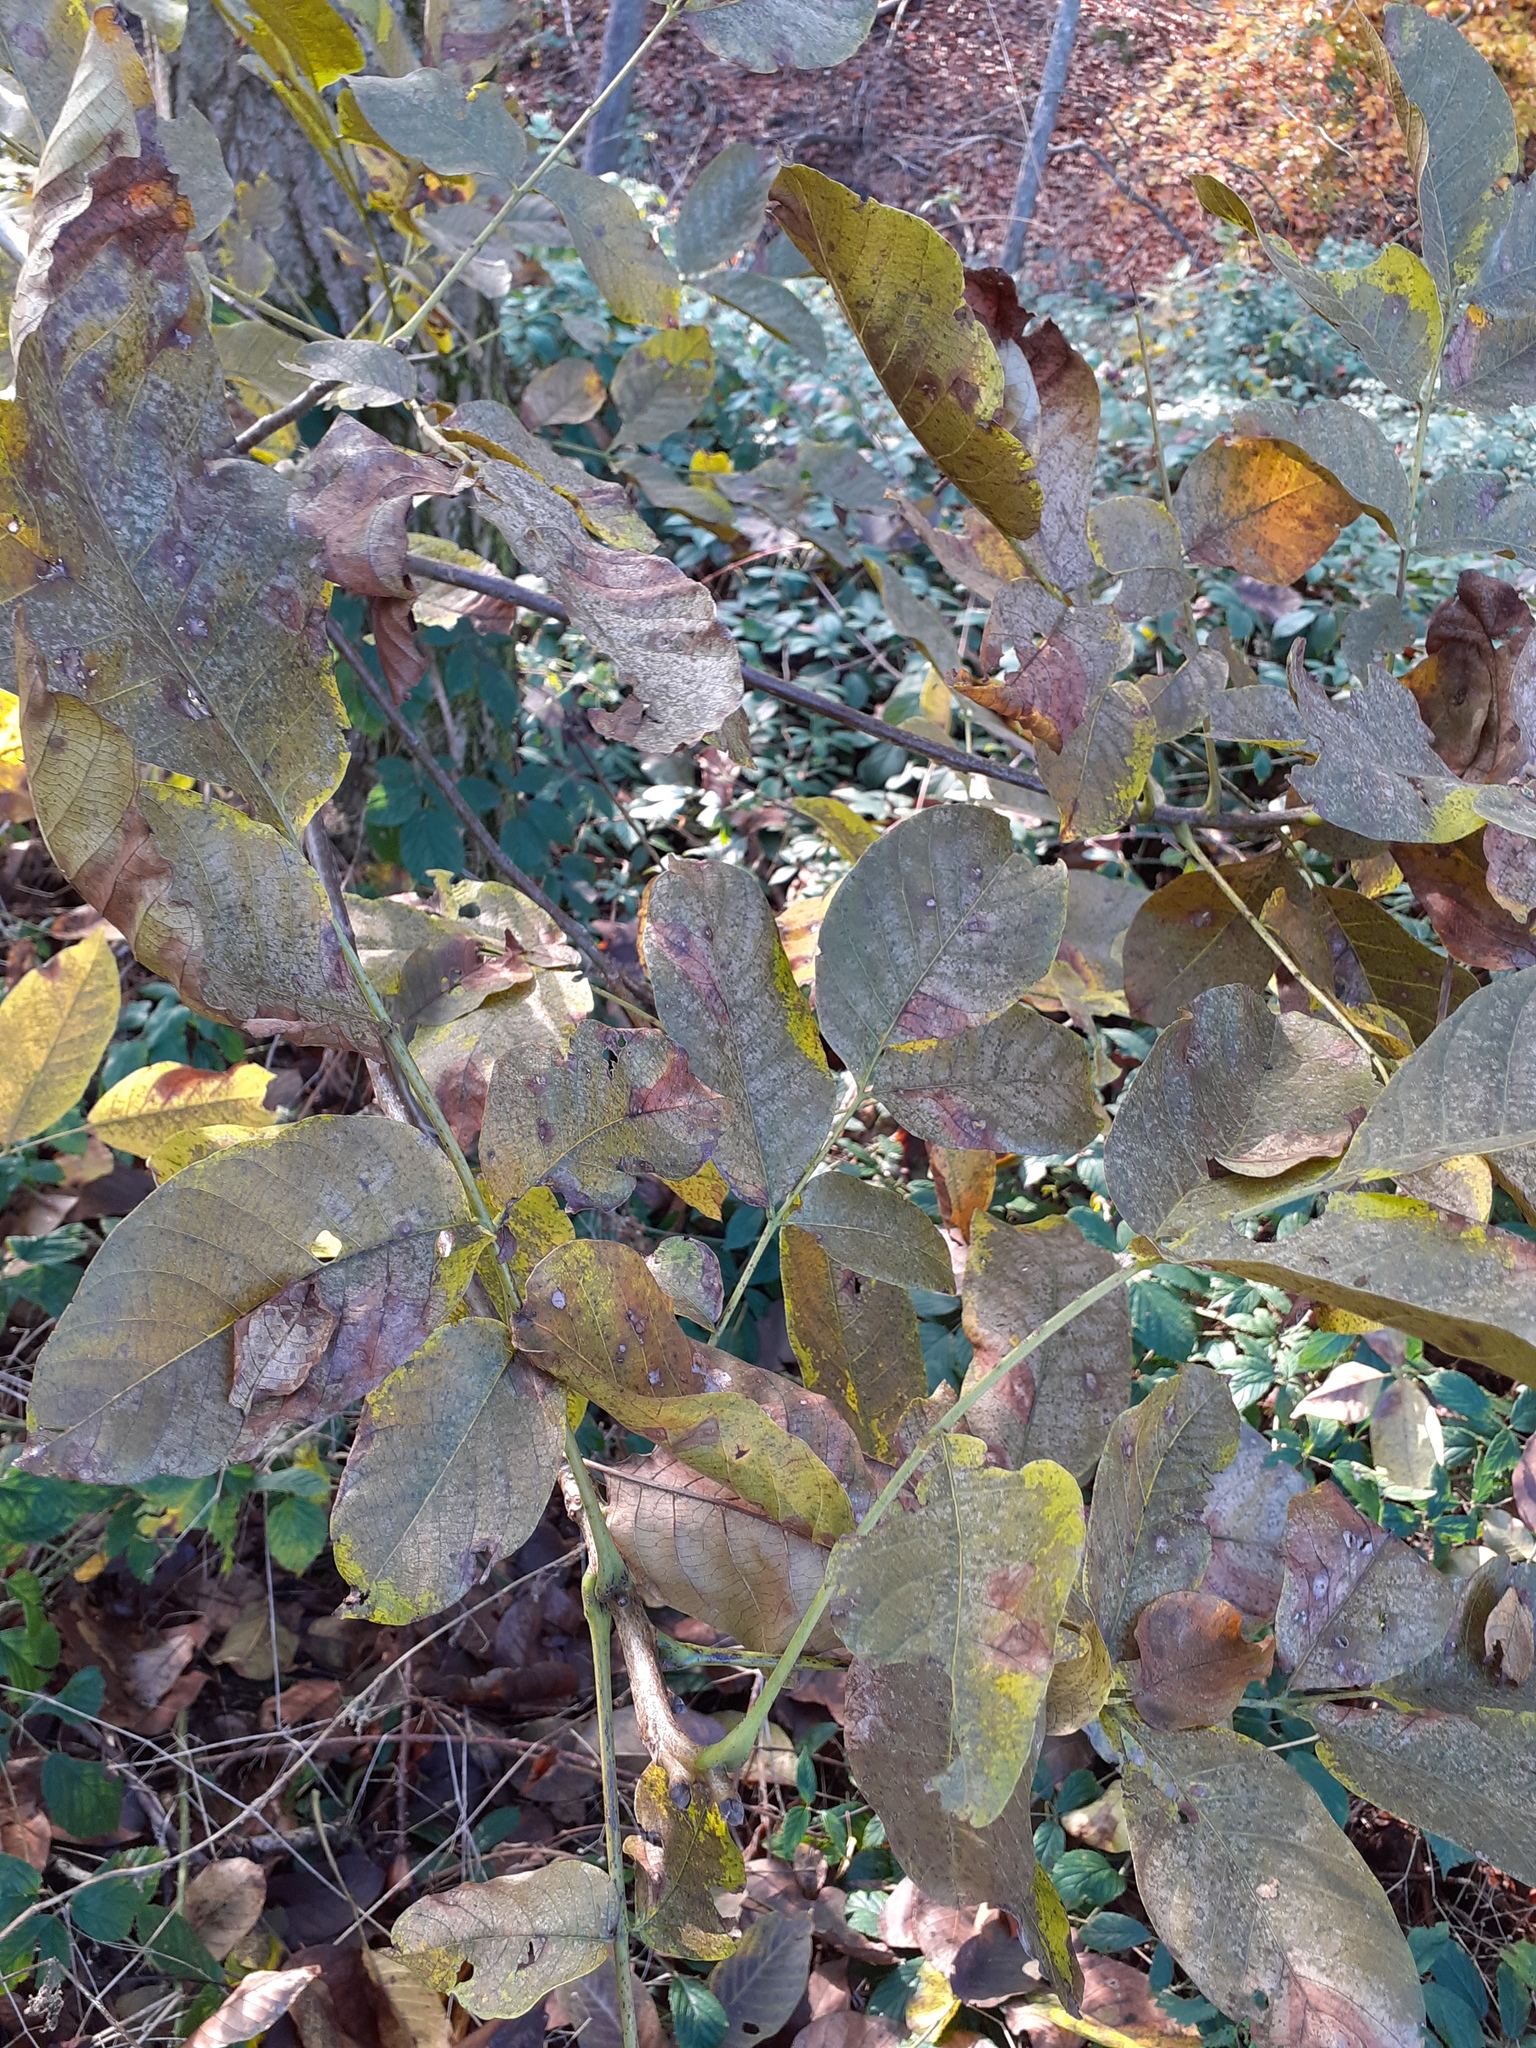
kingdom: Plantae
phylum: Tracheophyta
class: Magnoliopsida
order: Fagales
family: Juglandaceae
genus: Juglans
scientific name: Juglans regia
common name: Walnut
